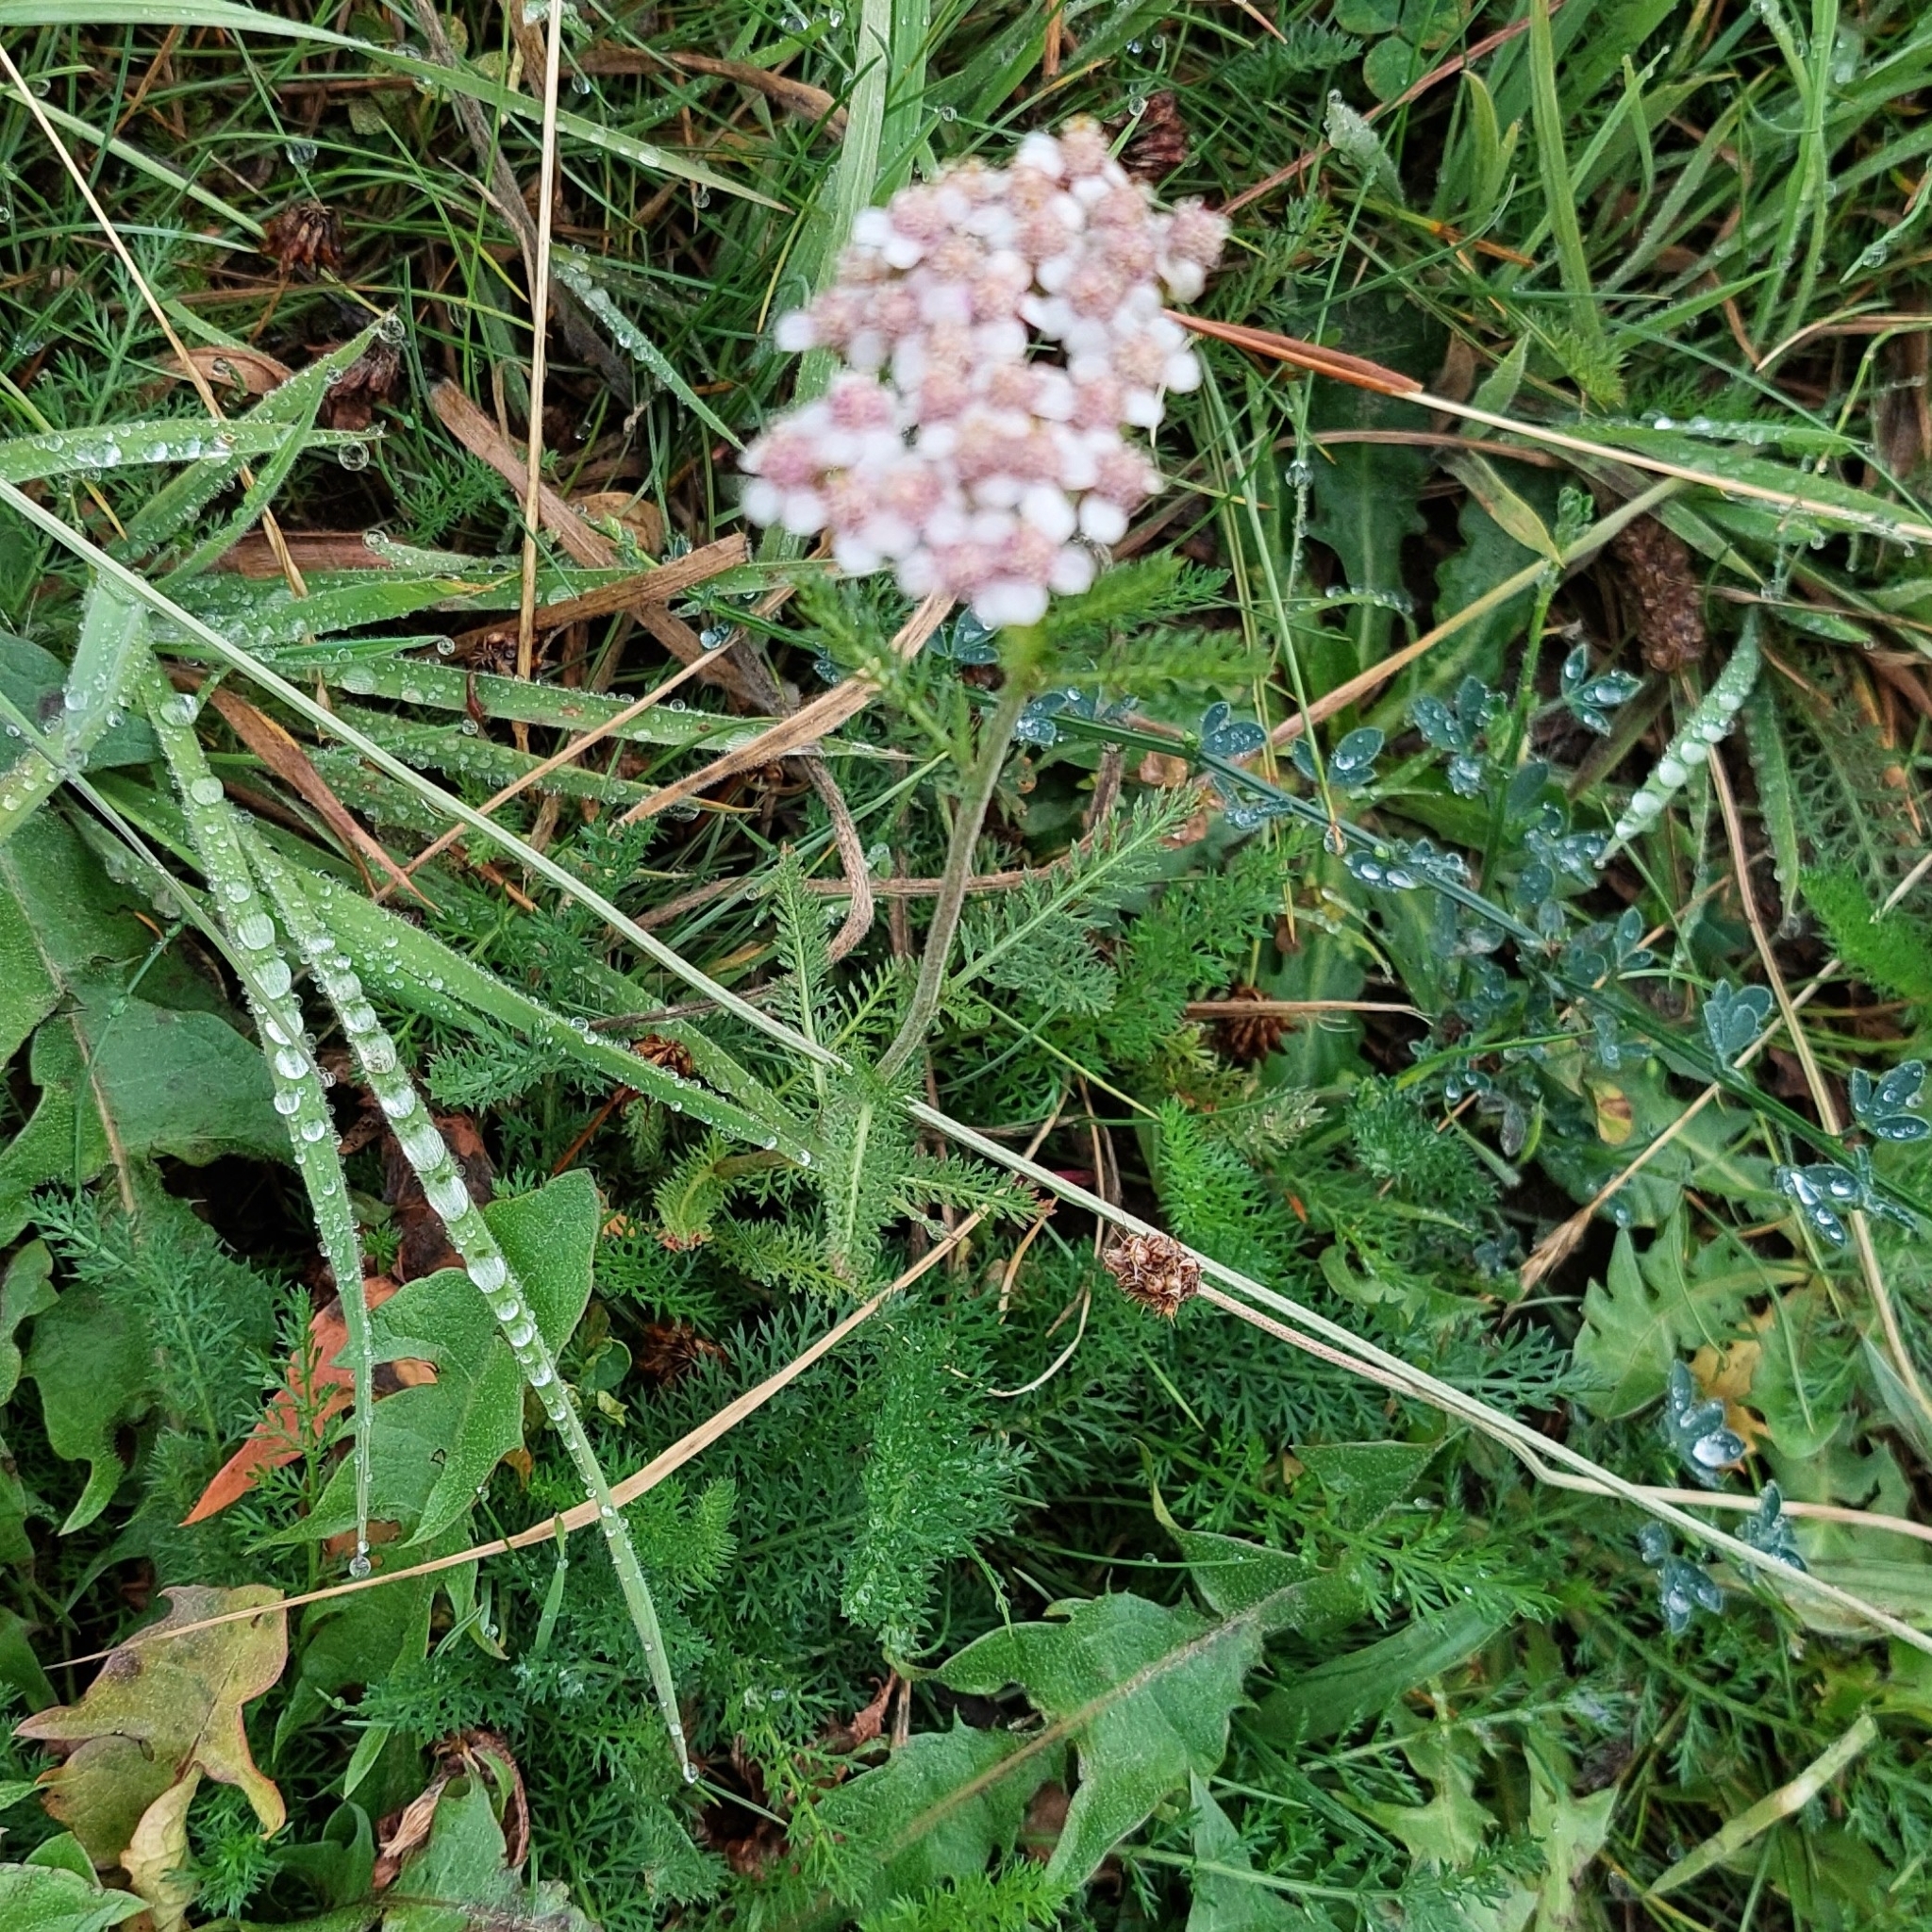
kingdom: Plantae
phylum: Tracheophyta
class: Magnoliopsida
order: Asterales
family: Asteraceae
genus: Achillea
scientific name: Achillea millefolium
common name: Yarrow
